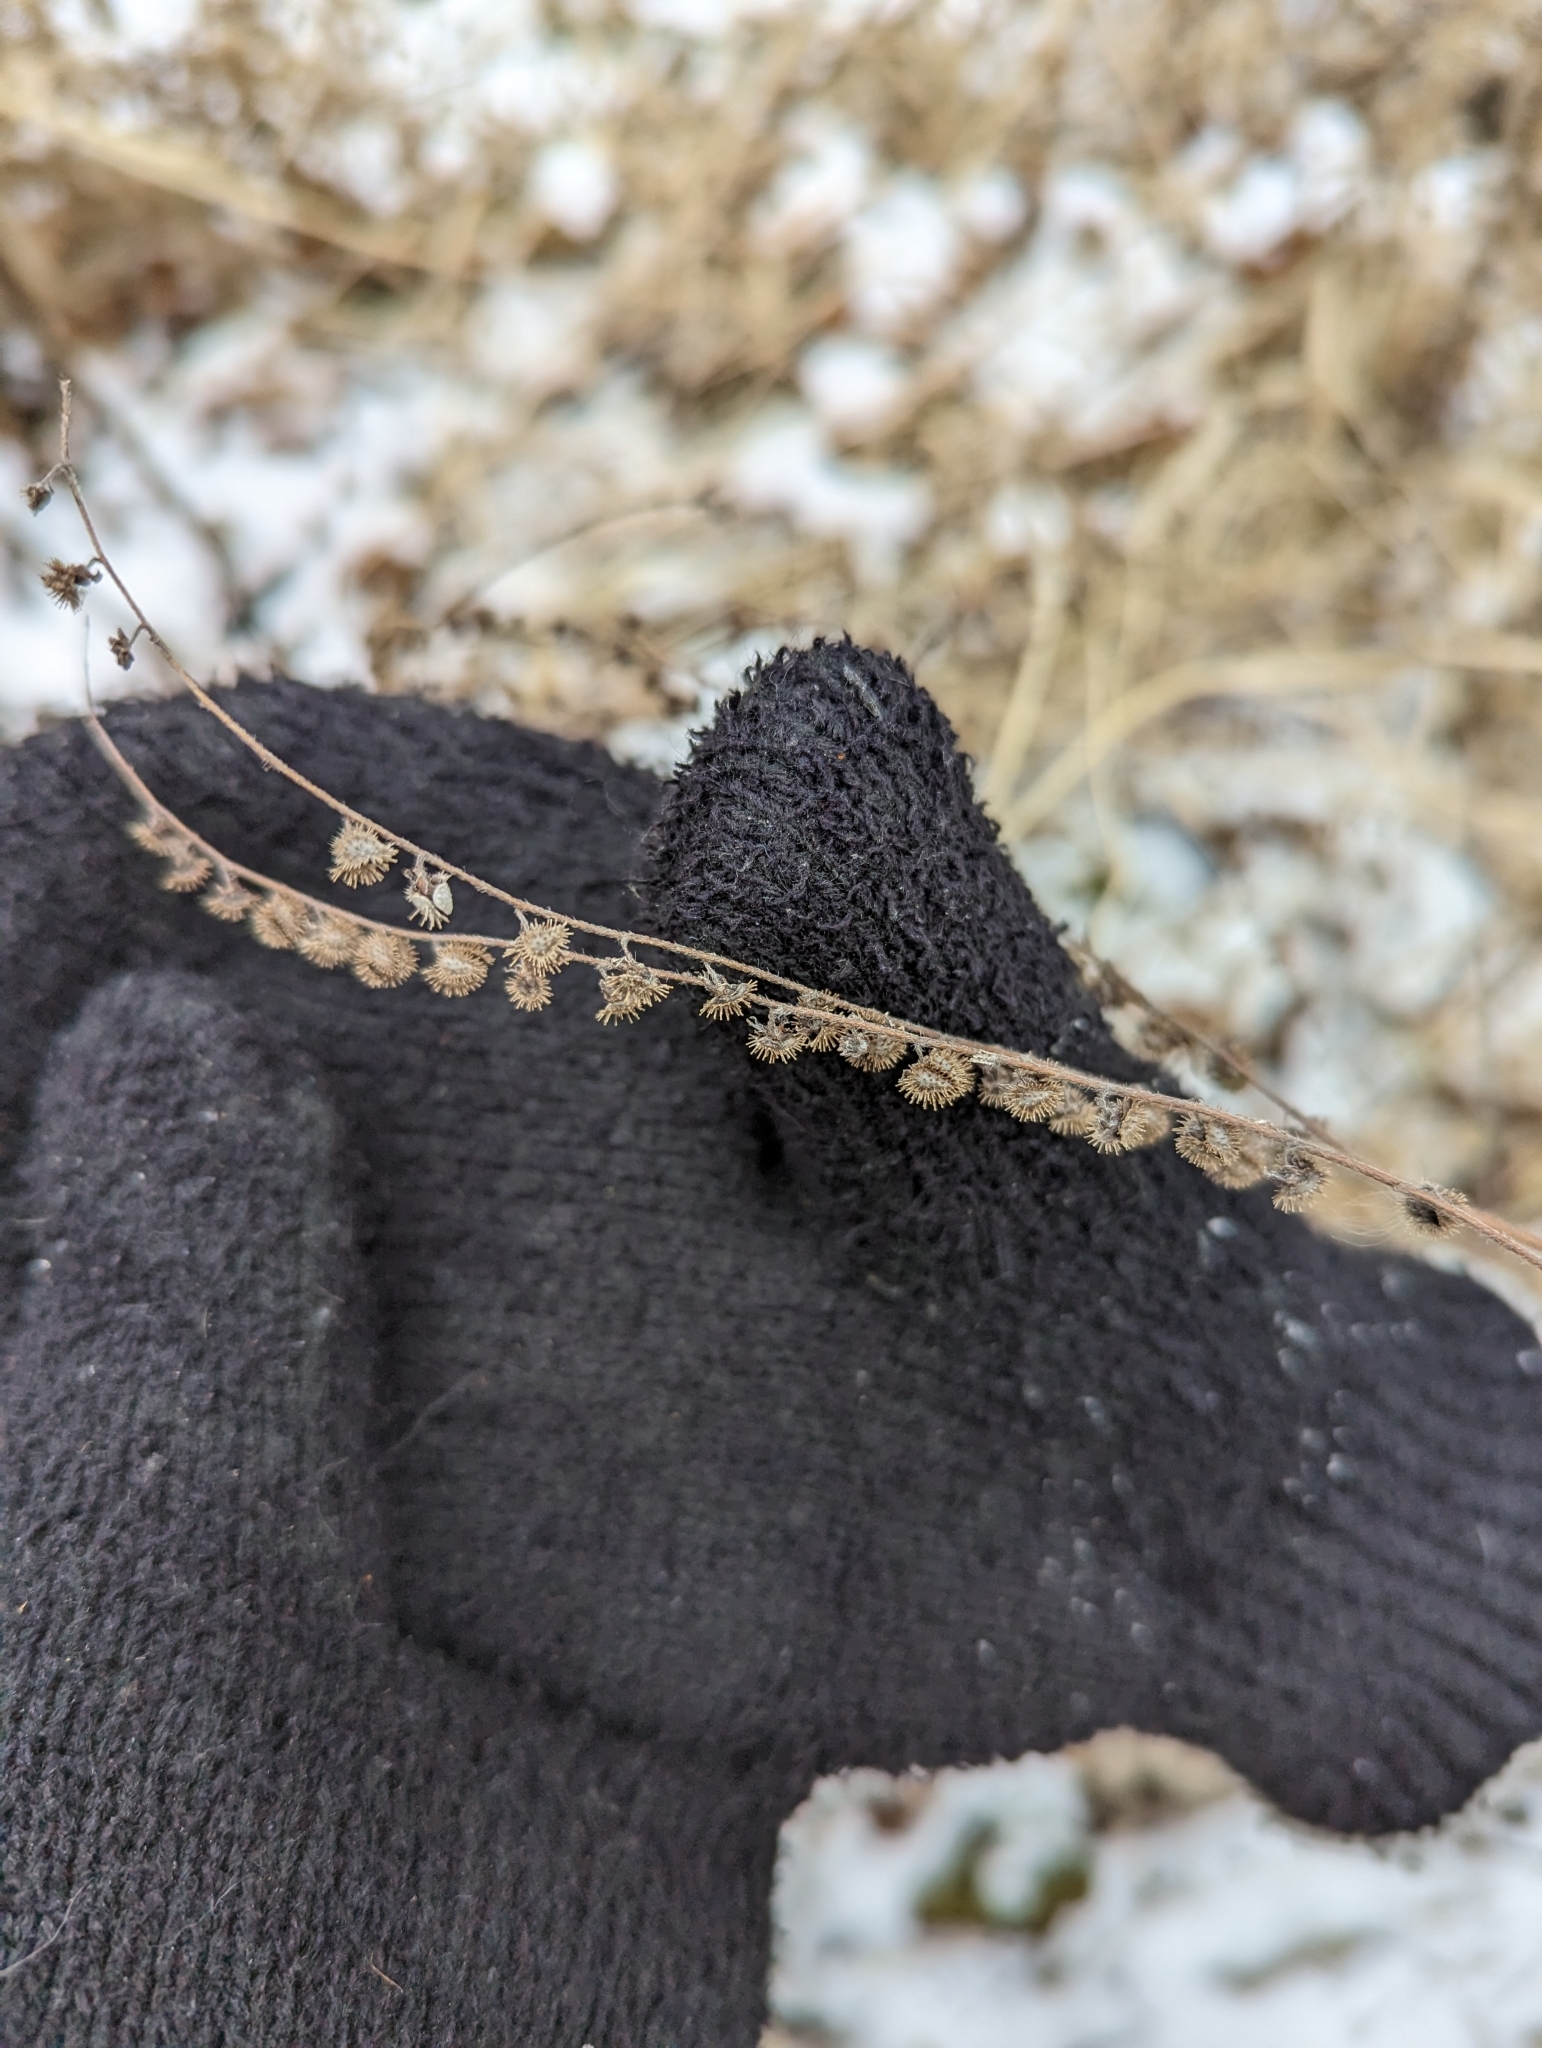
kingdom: Plantae
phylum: Tracheophyta
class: Magnoliopsida
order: Boraginales
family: Boraginaceae
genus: Hackelia
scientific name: Hackelia virginiana
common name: Beggar's-lice
